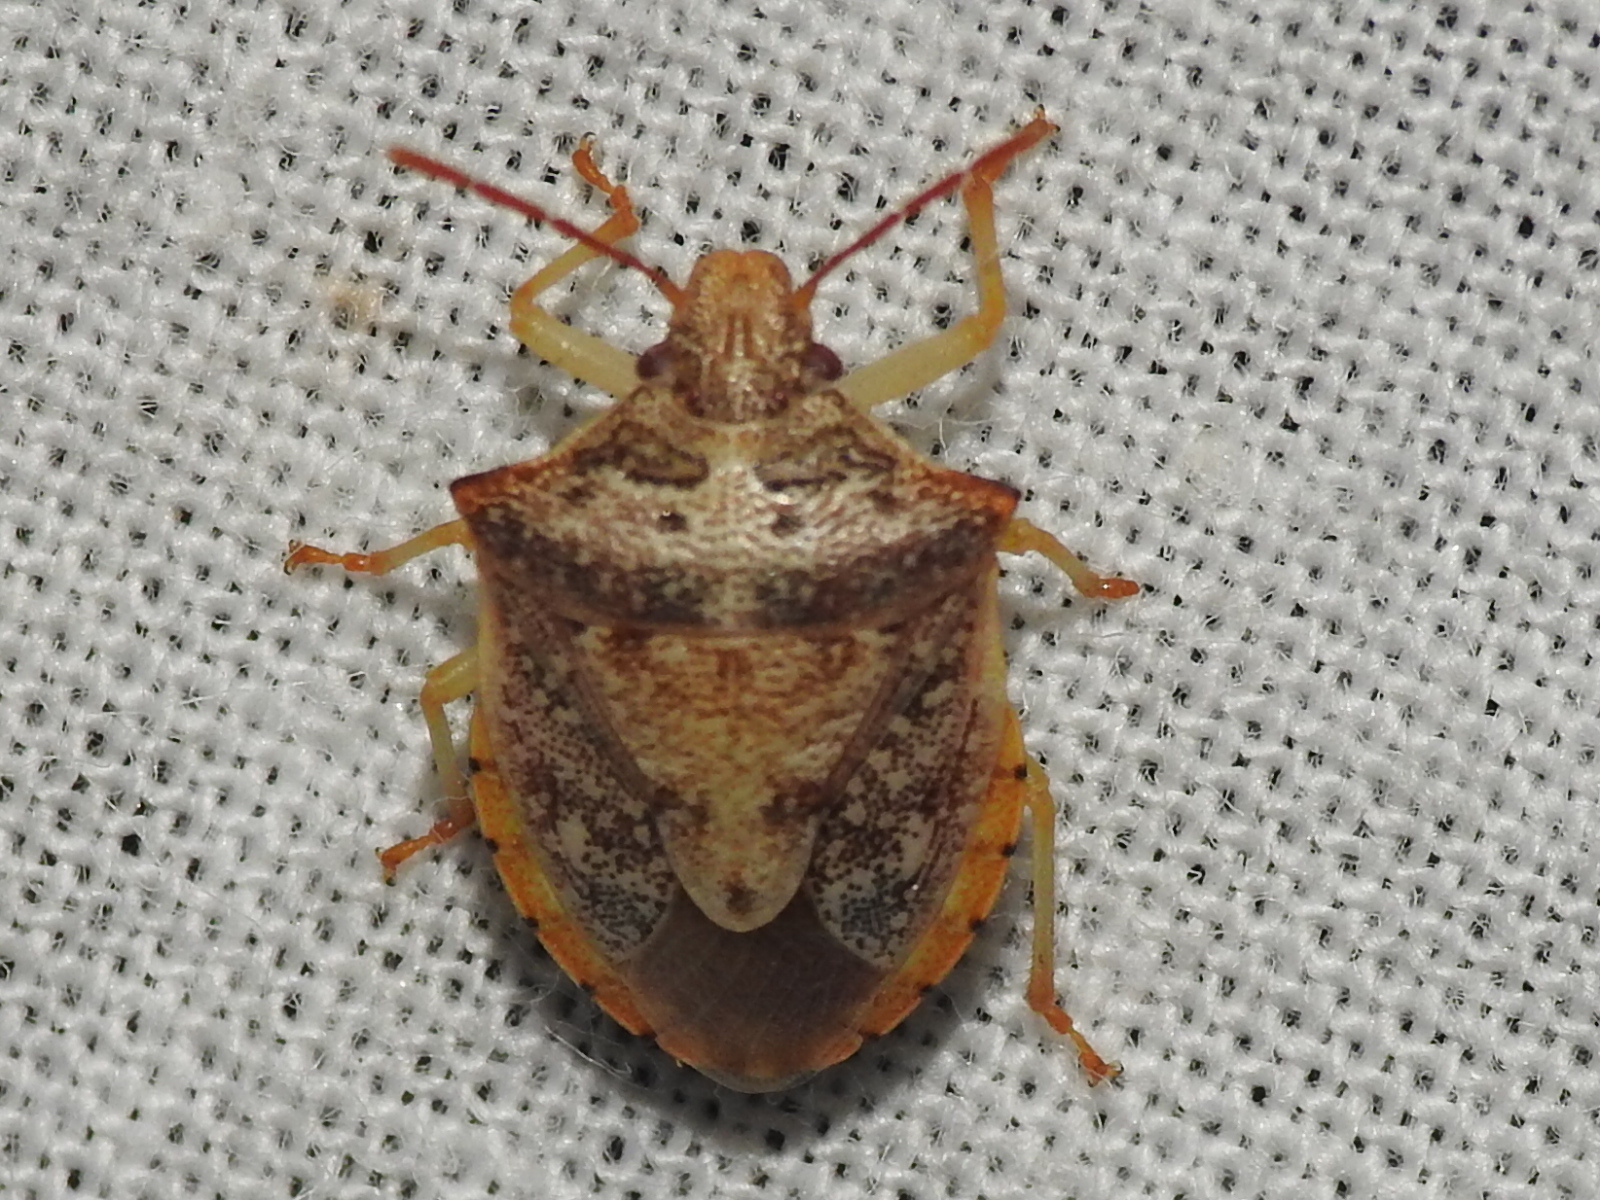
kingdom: Animalia
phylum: Arthropoda
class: Insecta
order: Hemiptera
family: Pentatomidae
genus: Dendrocoris
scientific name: Dendrocoris humeralis
